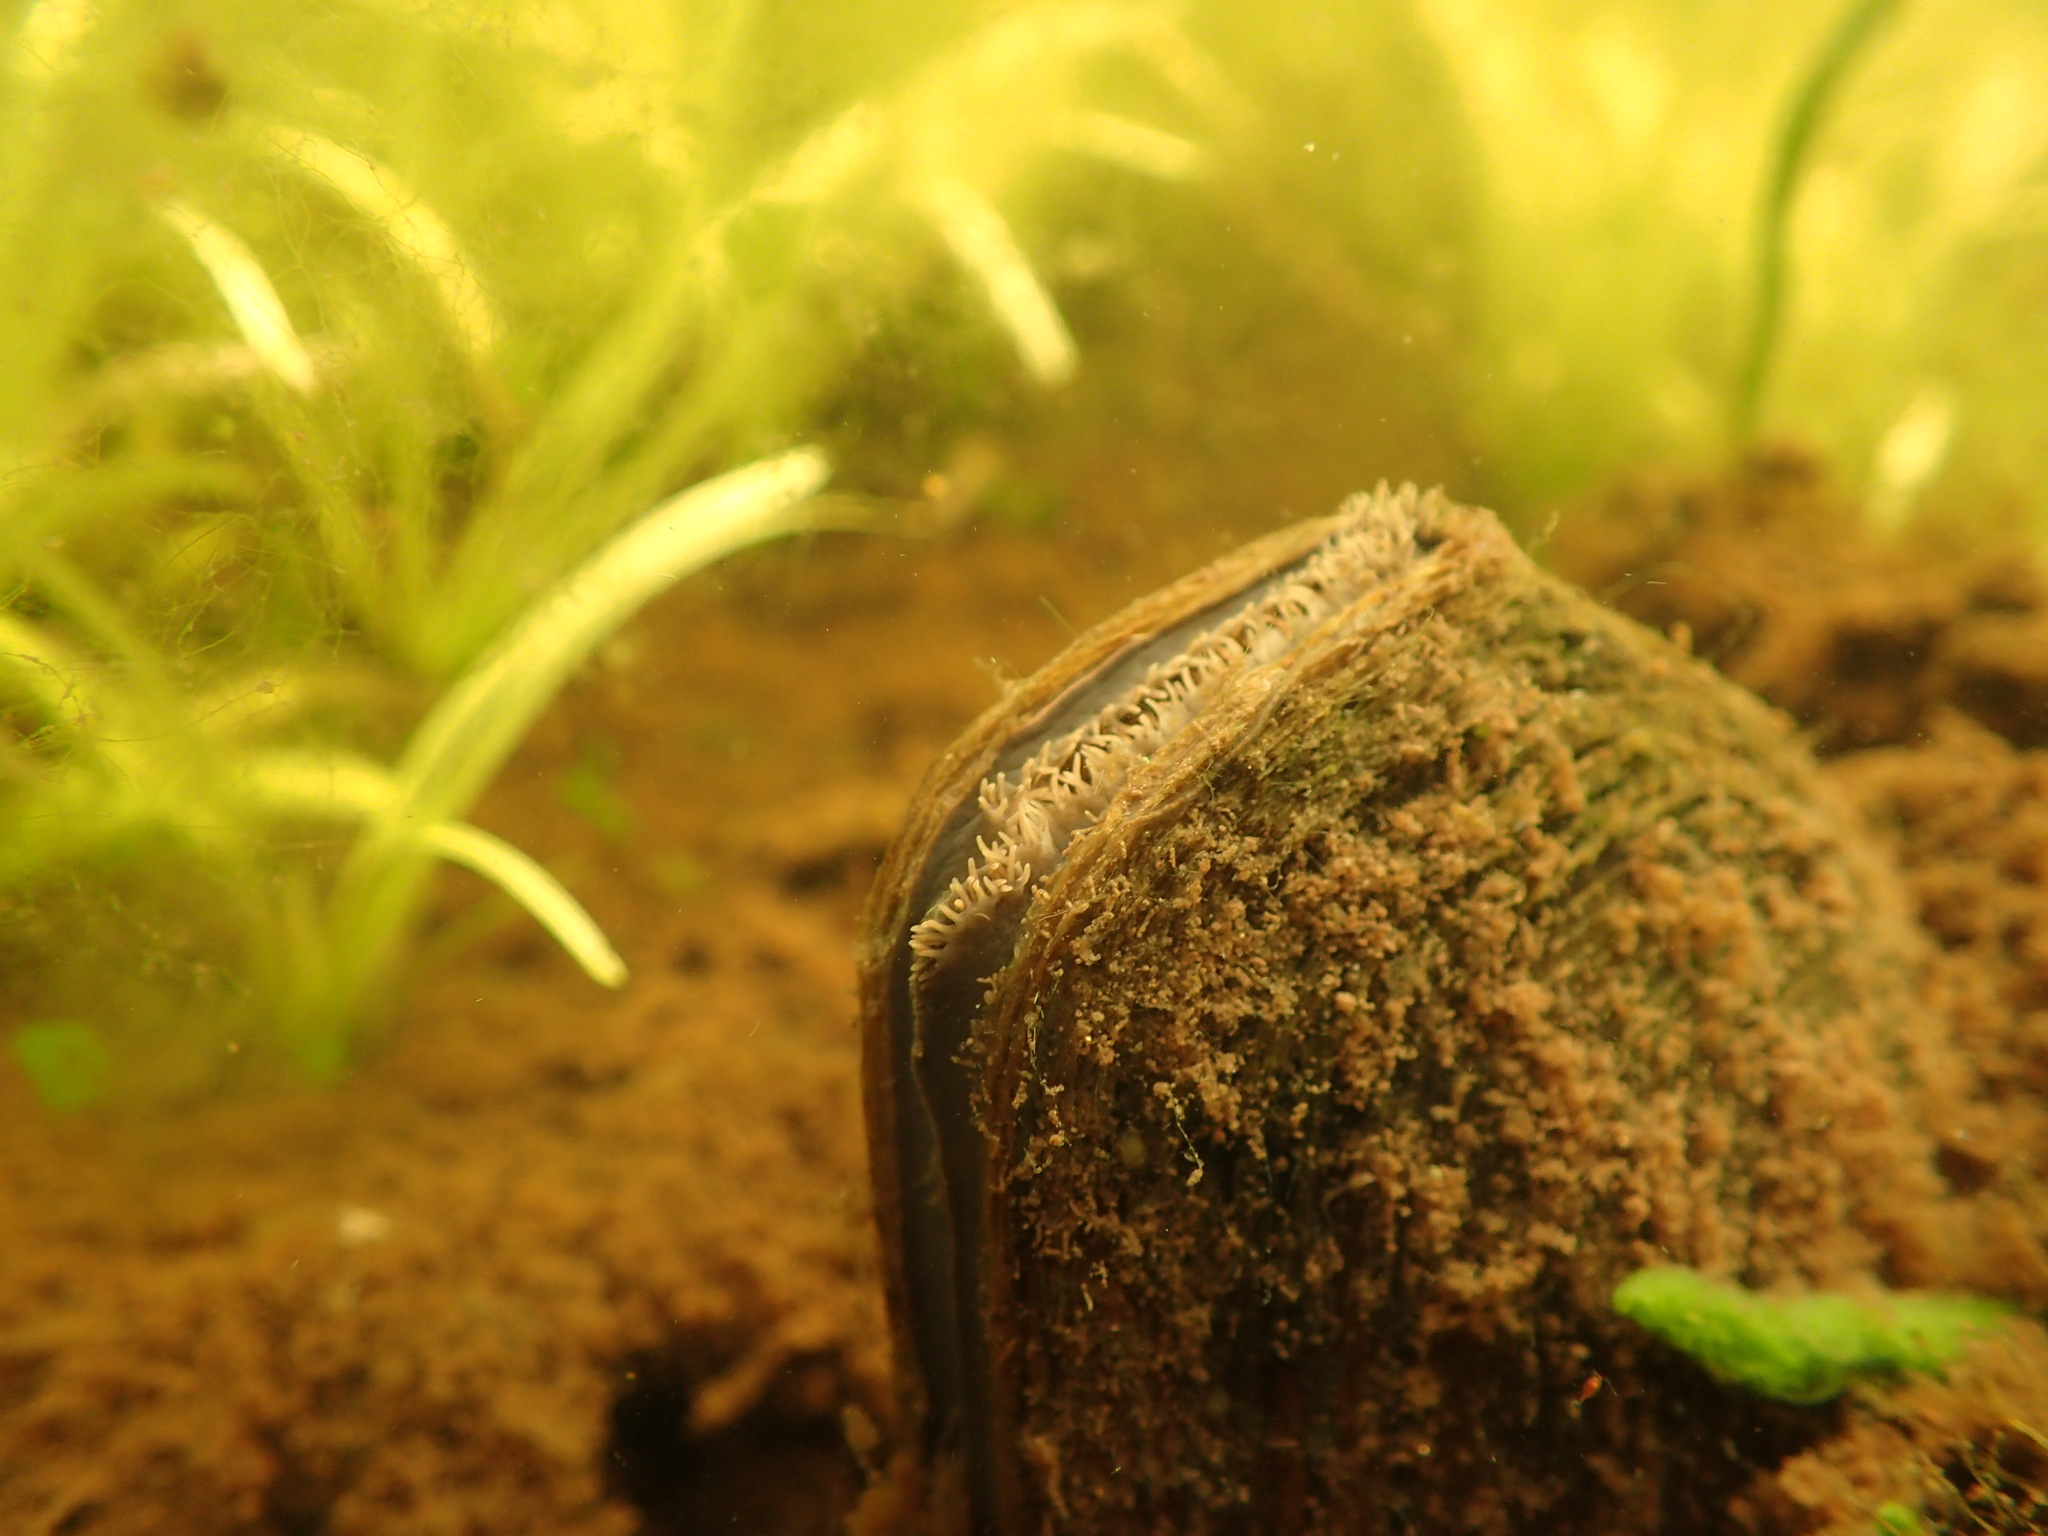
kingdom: Animalia
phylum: Mollusca
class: Bivalvia
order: Unionida
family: Unionidae
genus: Utterbackiana
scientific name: Utterbackiana implicata
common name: Alewife floater
